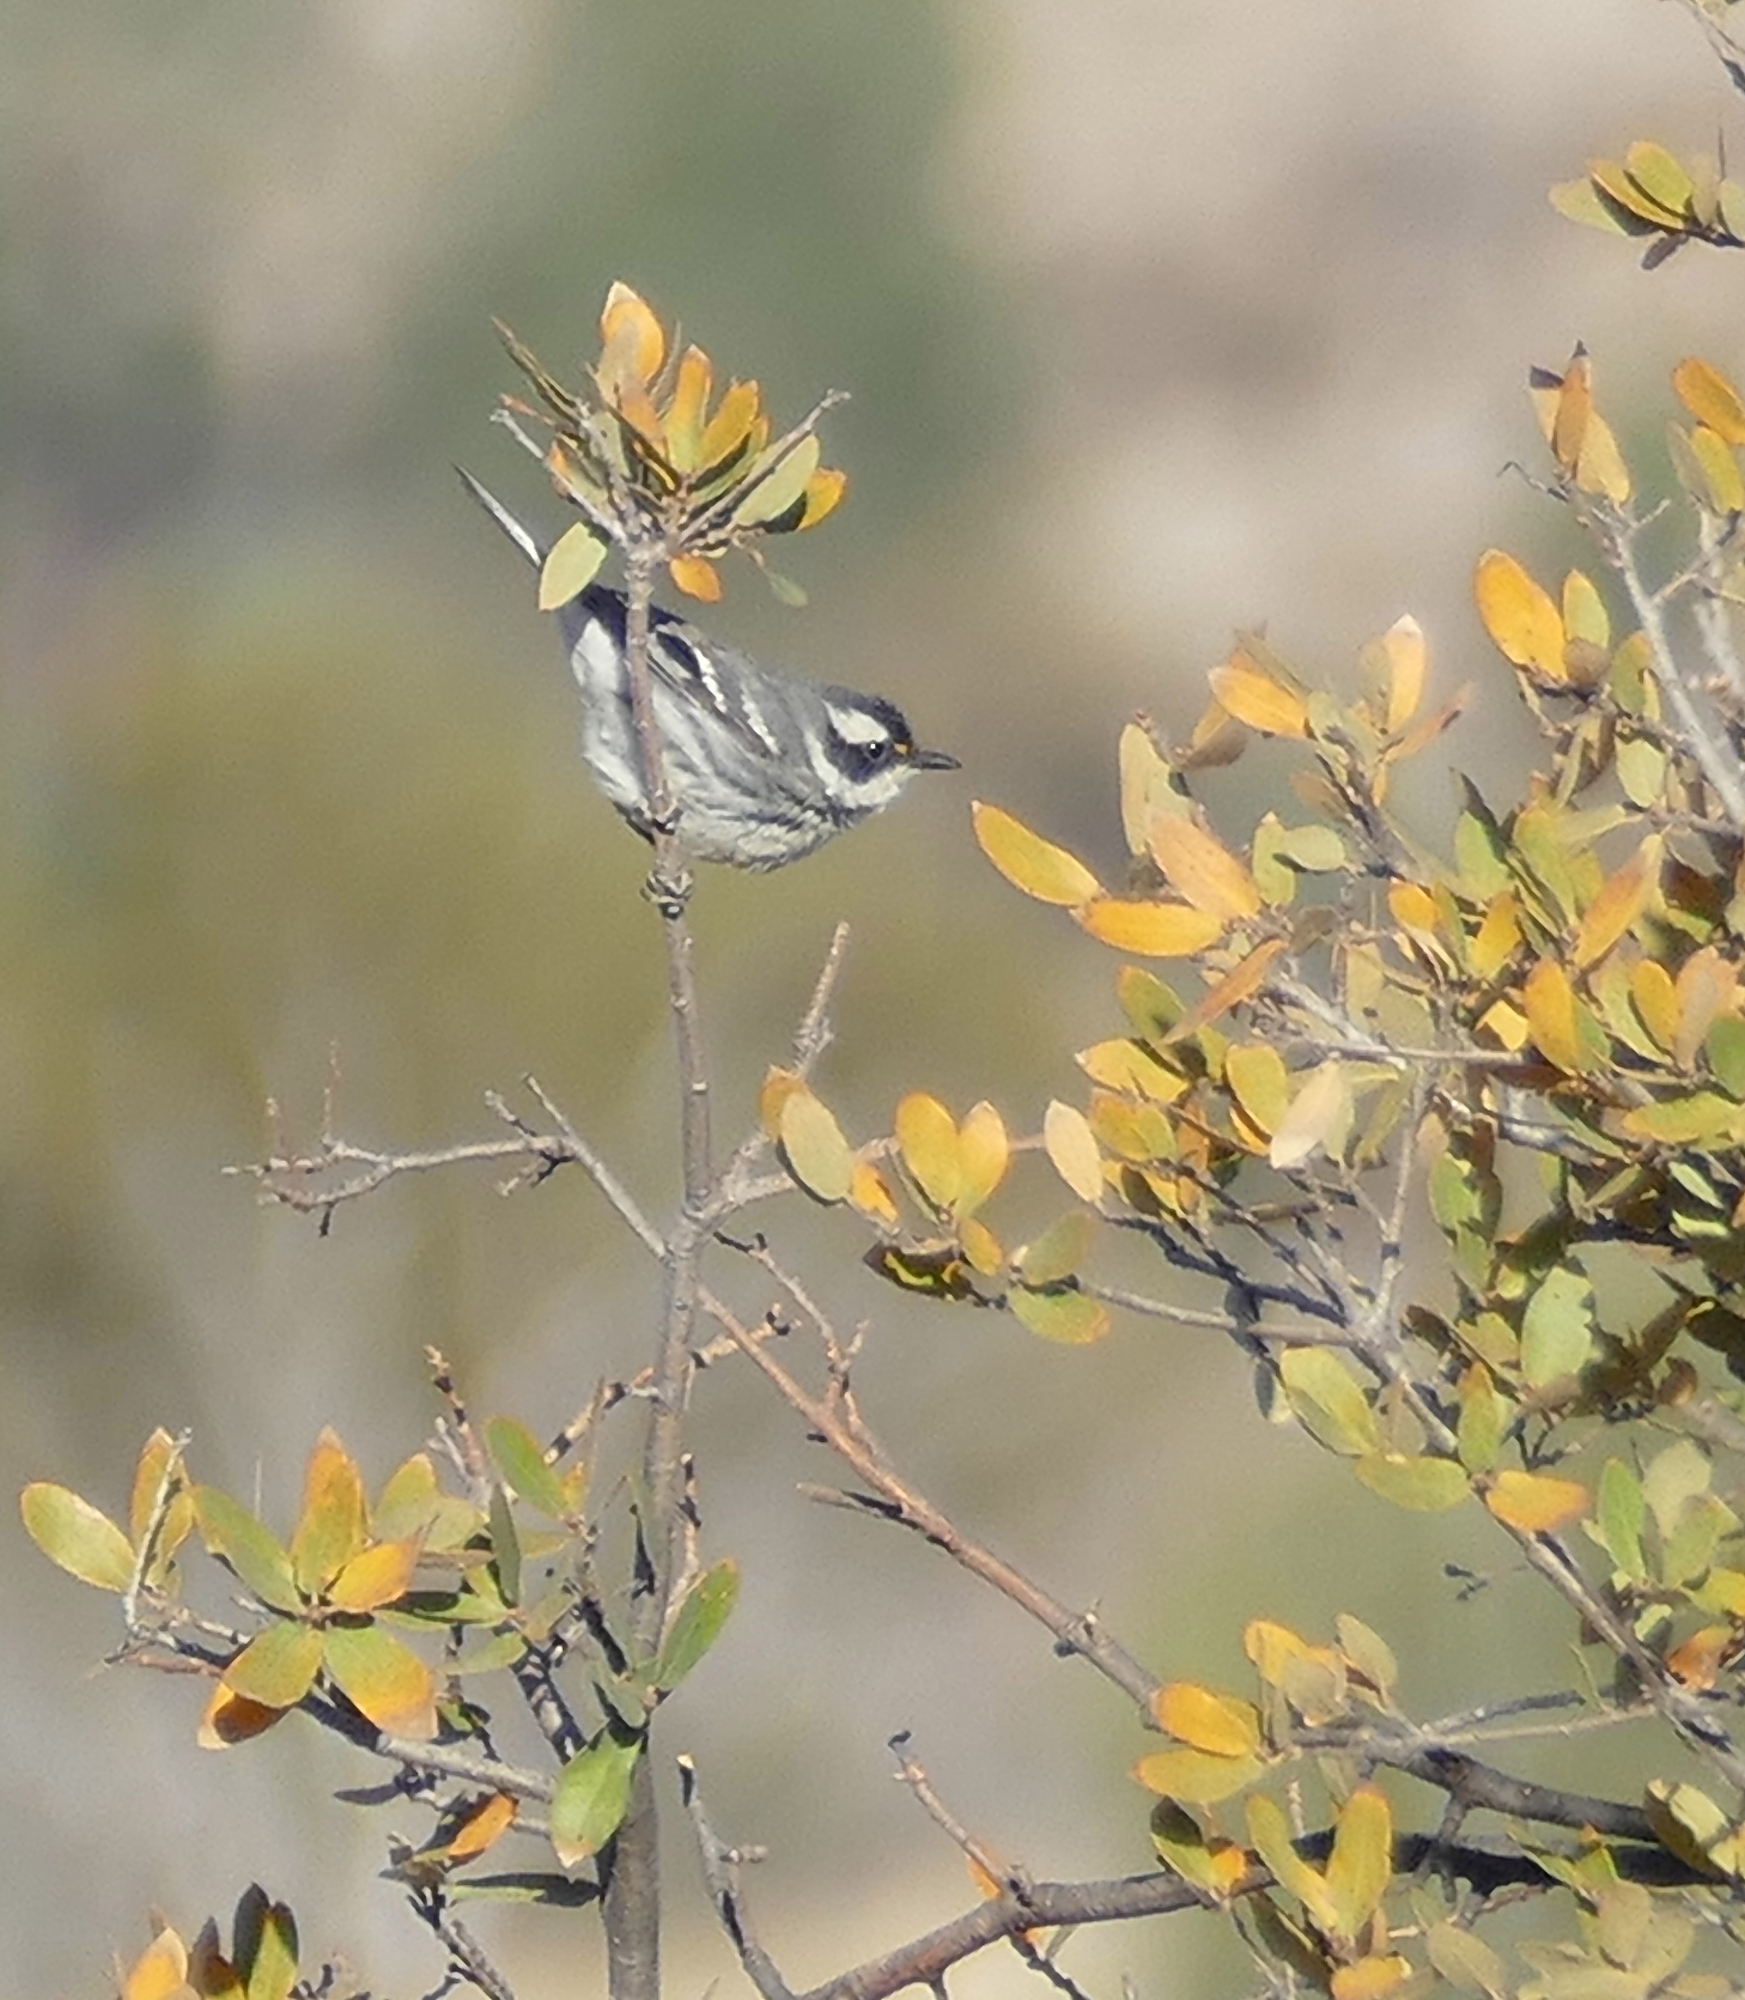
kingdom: Animalia
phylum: Chordata
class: Aves
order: Passeriformes
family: Parulidae
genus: Setophaga
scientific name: Setophaga nigrescens
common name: Black-throated gray warbler
